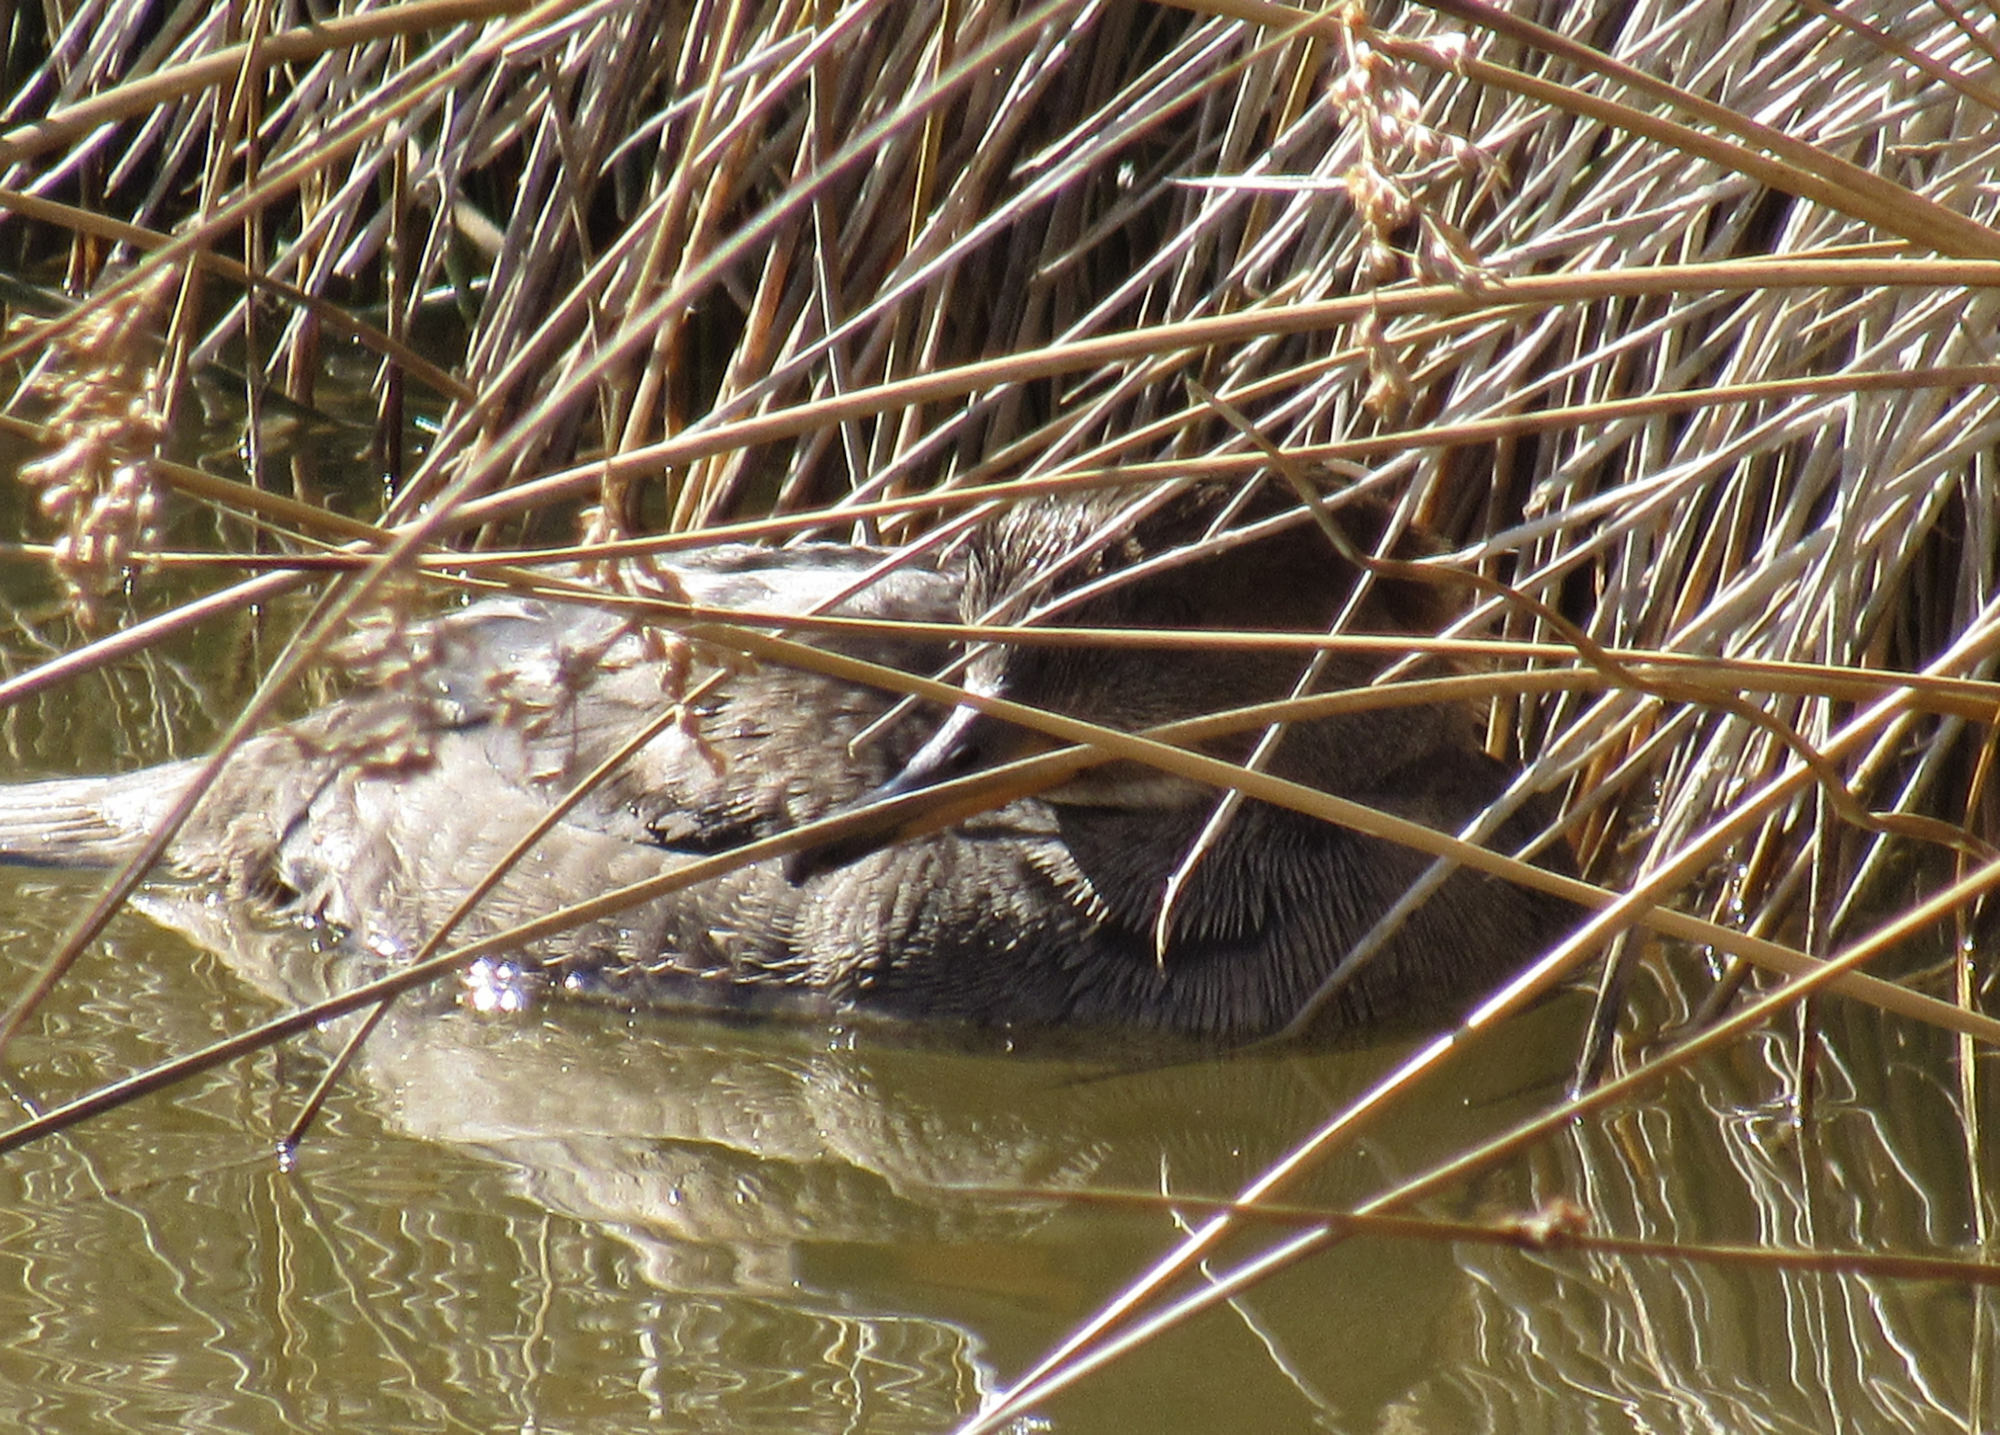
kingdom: Animalia
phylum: Chordata
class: Aves
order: Anseriformes
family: Anatidae
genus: Lophodytes
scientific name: Lophodytes cucullatus
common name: Hooded merganser
